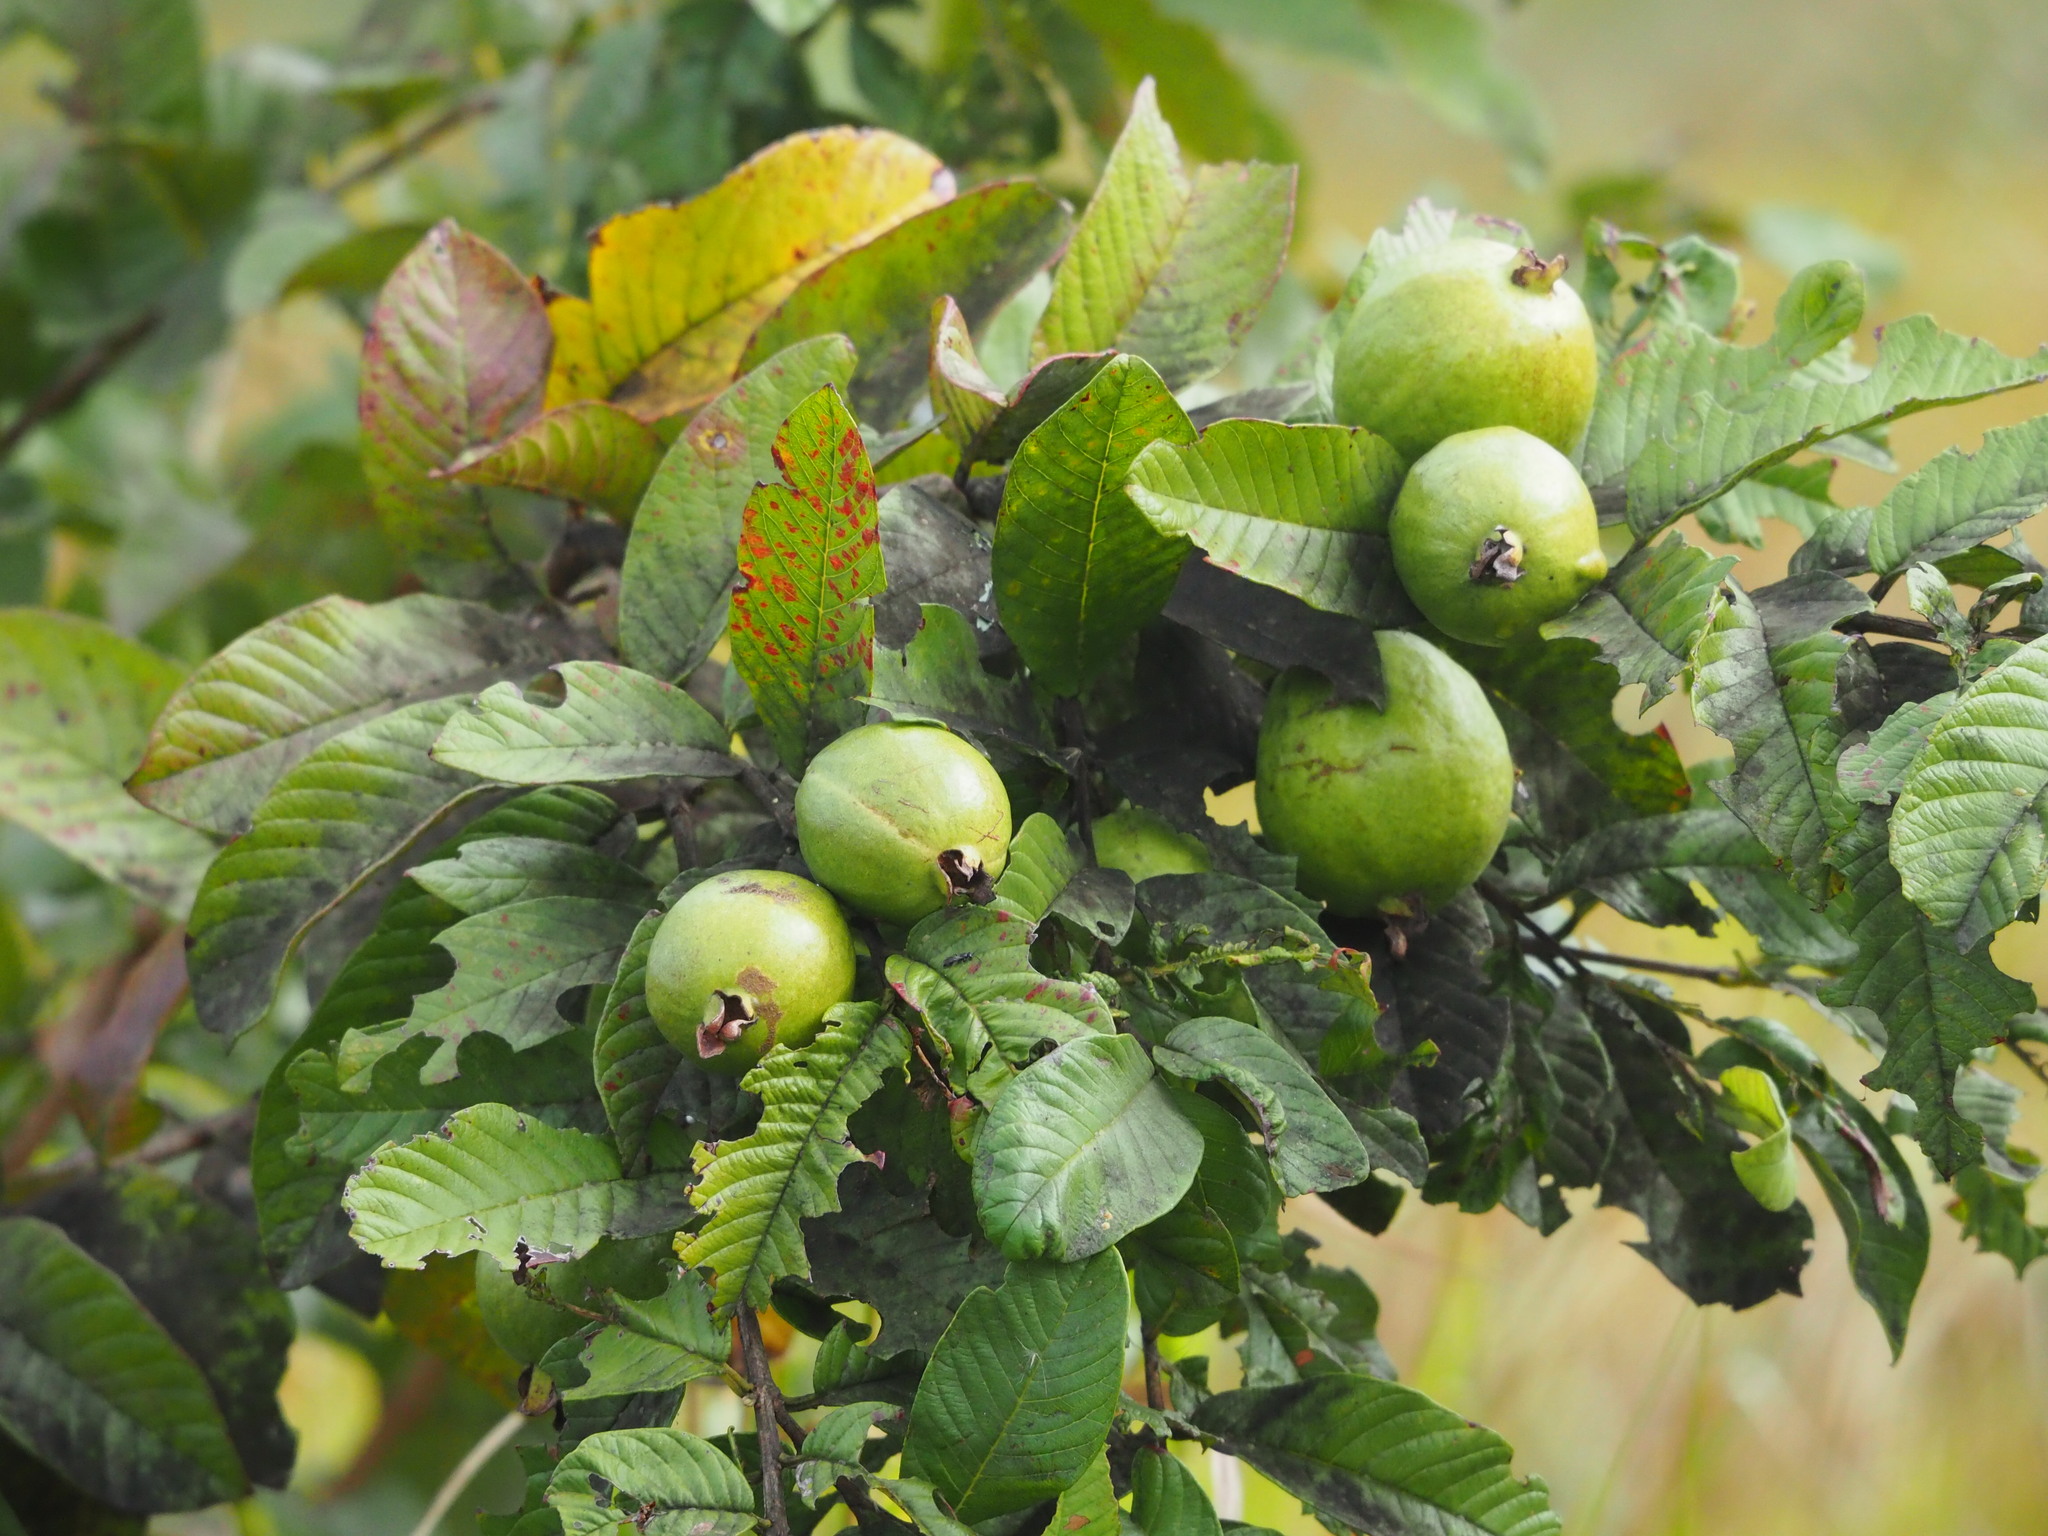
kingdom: Plantae
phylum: Tracheophyta
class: Magnoliopsida
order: Myrtales
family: Myrtaceae
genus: Psidium
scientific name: Psidium guajava
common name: Guava
